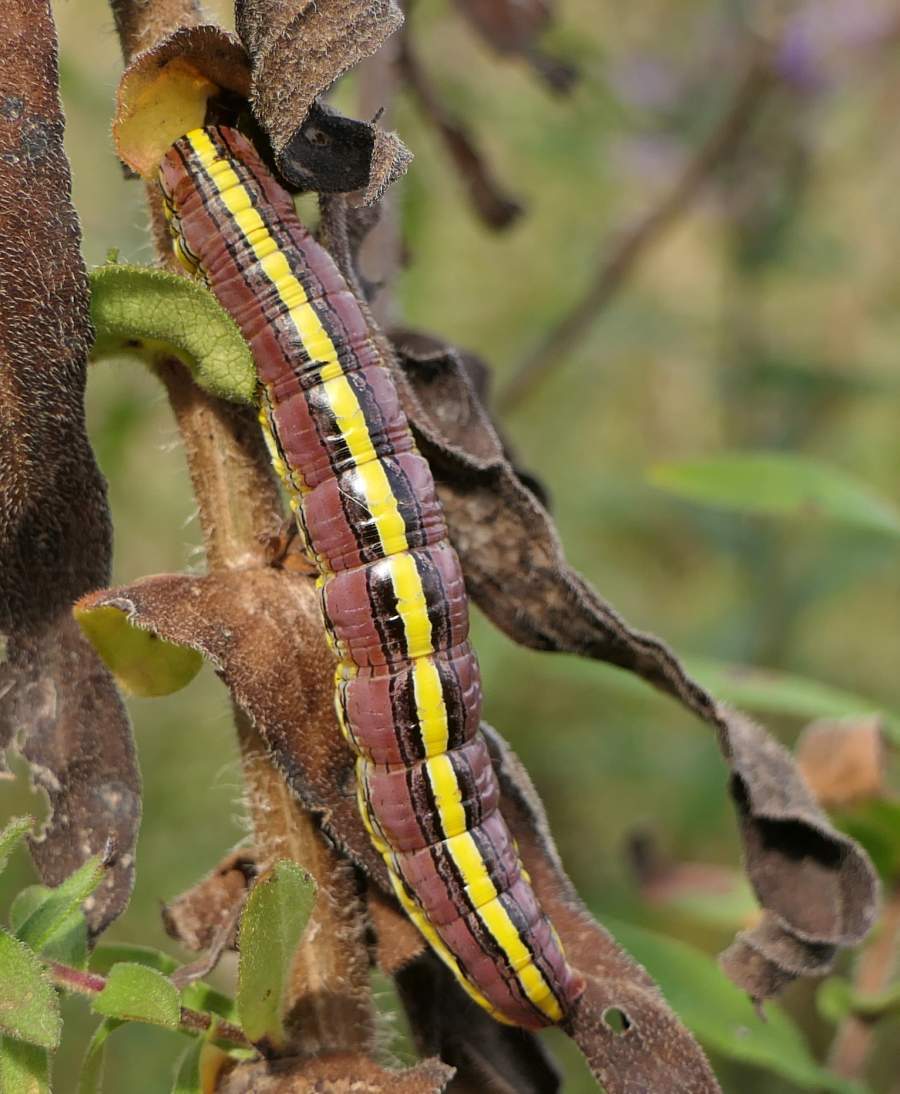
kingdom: Animalia
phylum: Arthropoda
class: Insecta
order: Lepidoptera
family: Noctuidae
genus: Cucullia
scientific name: Cucullia asteroides
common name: Asteroid moth
